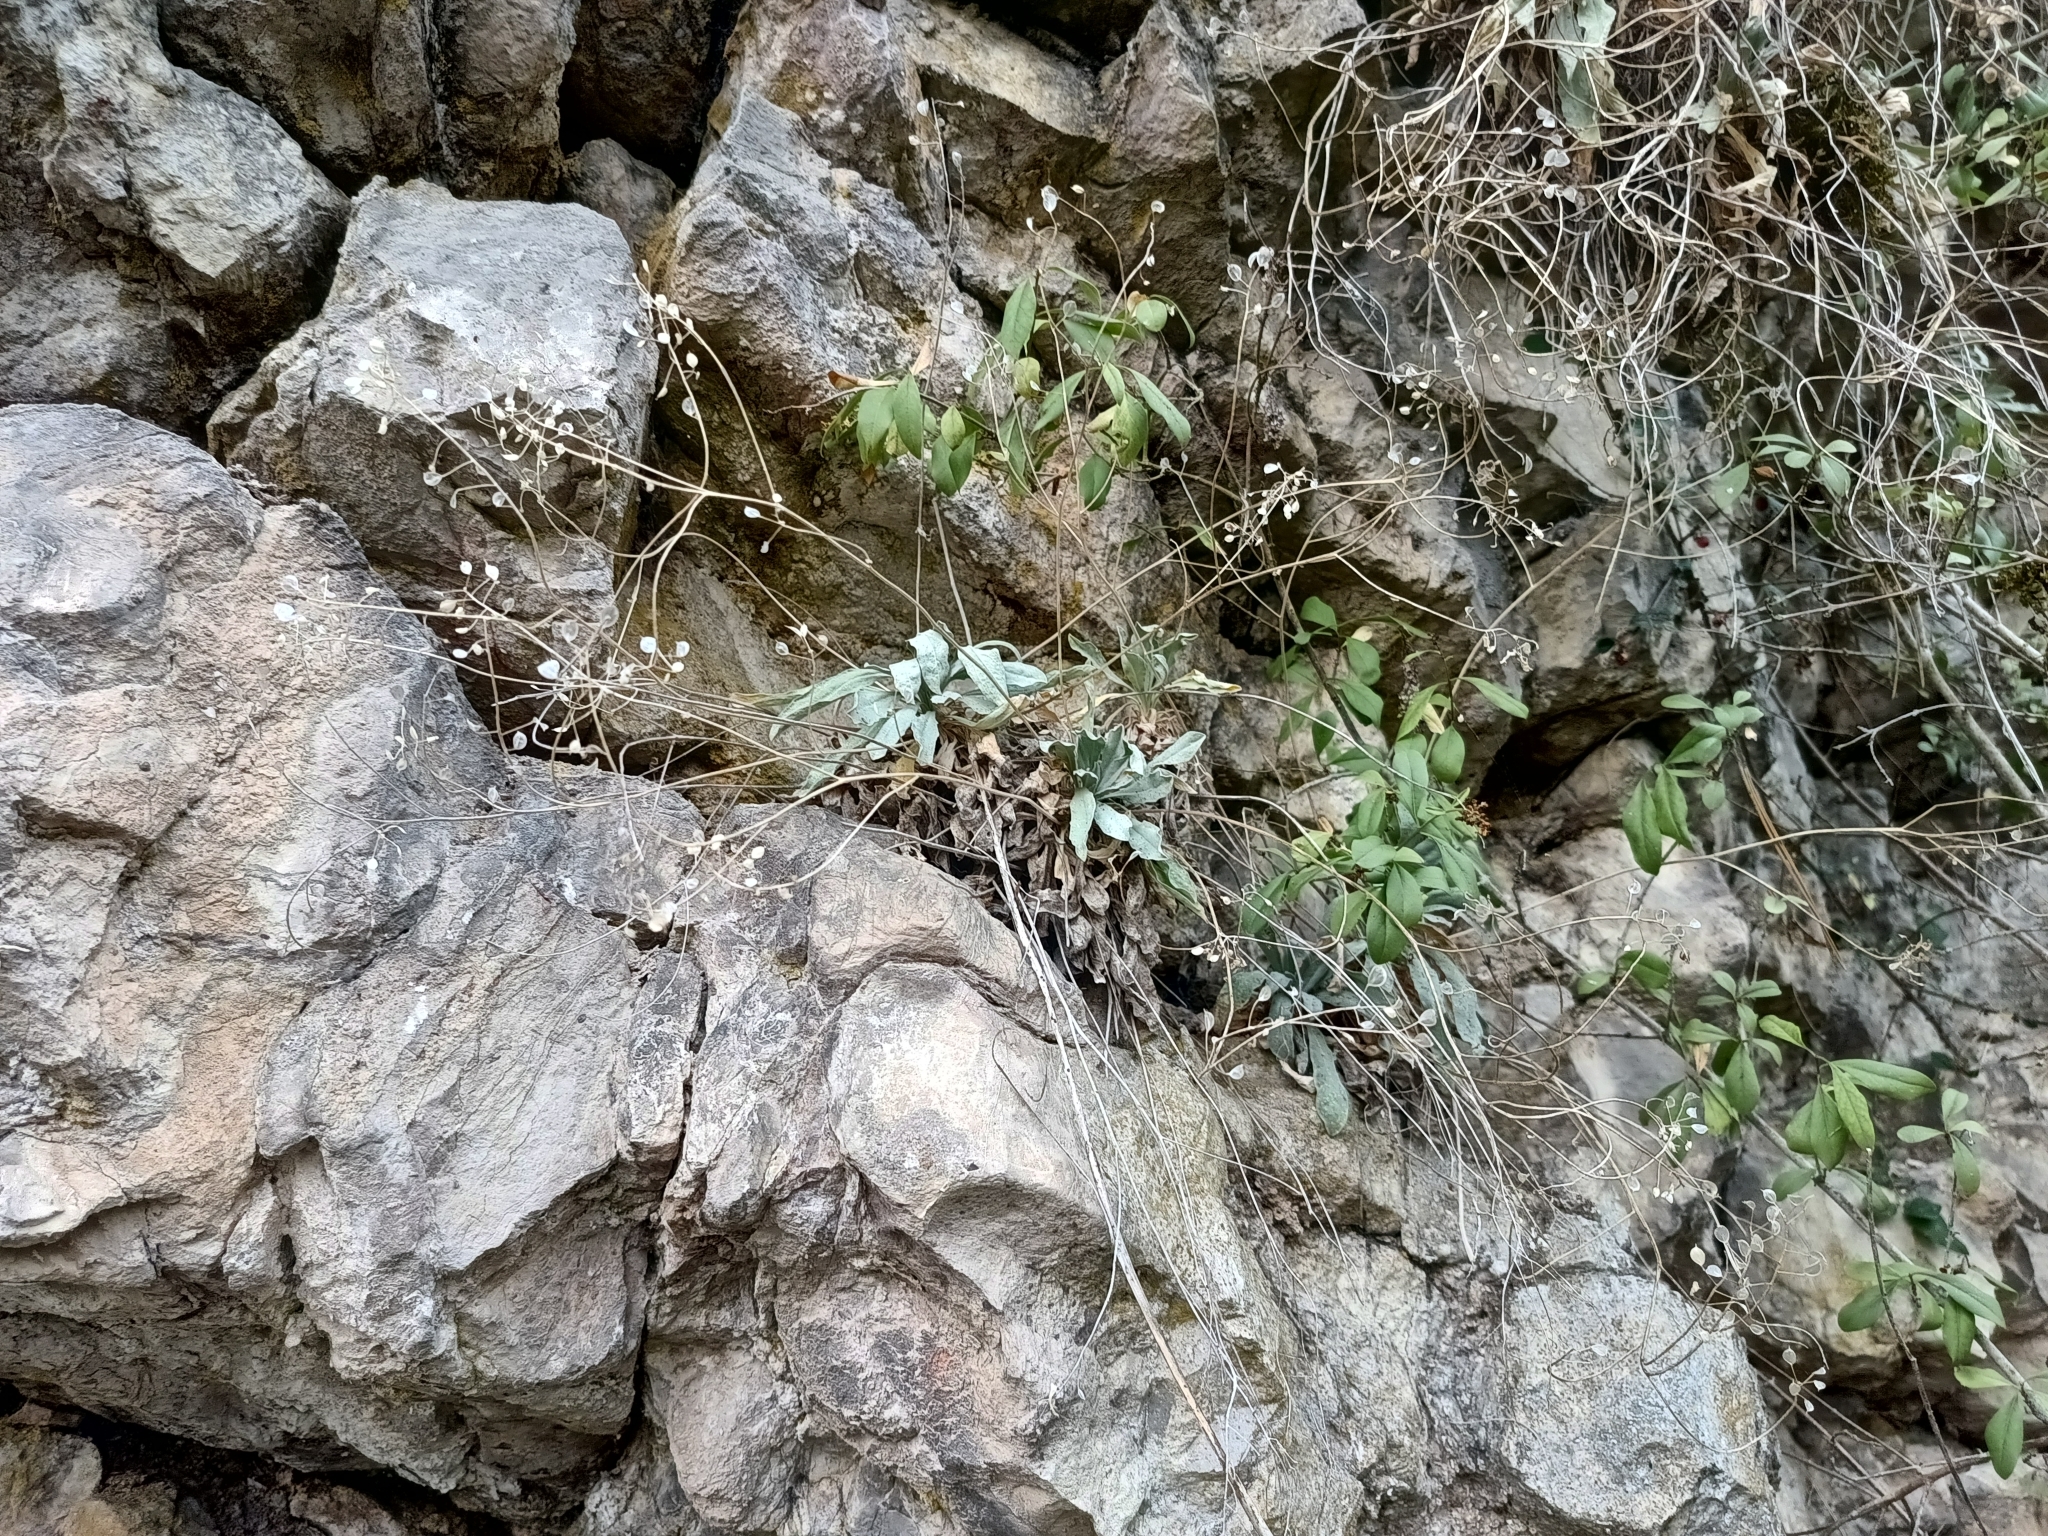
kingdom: Plantae
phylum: Tracheophyta
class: Magnoliopsida
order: Brassicales
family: Brassicaceae
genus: Aurinia
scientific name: Aurinia saxatilis
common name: Golden-tuft alyssum
